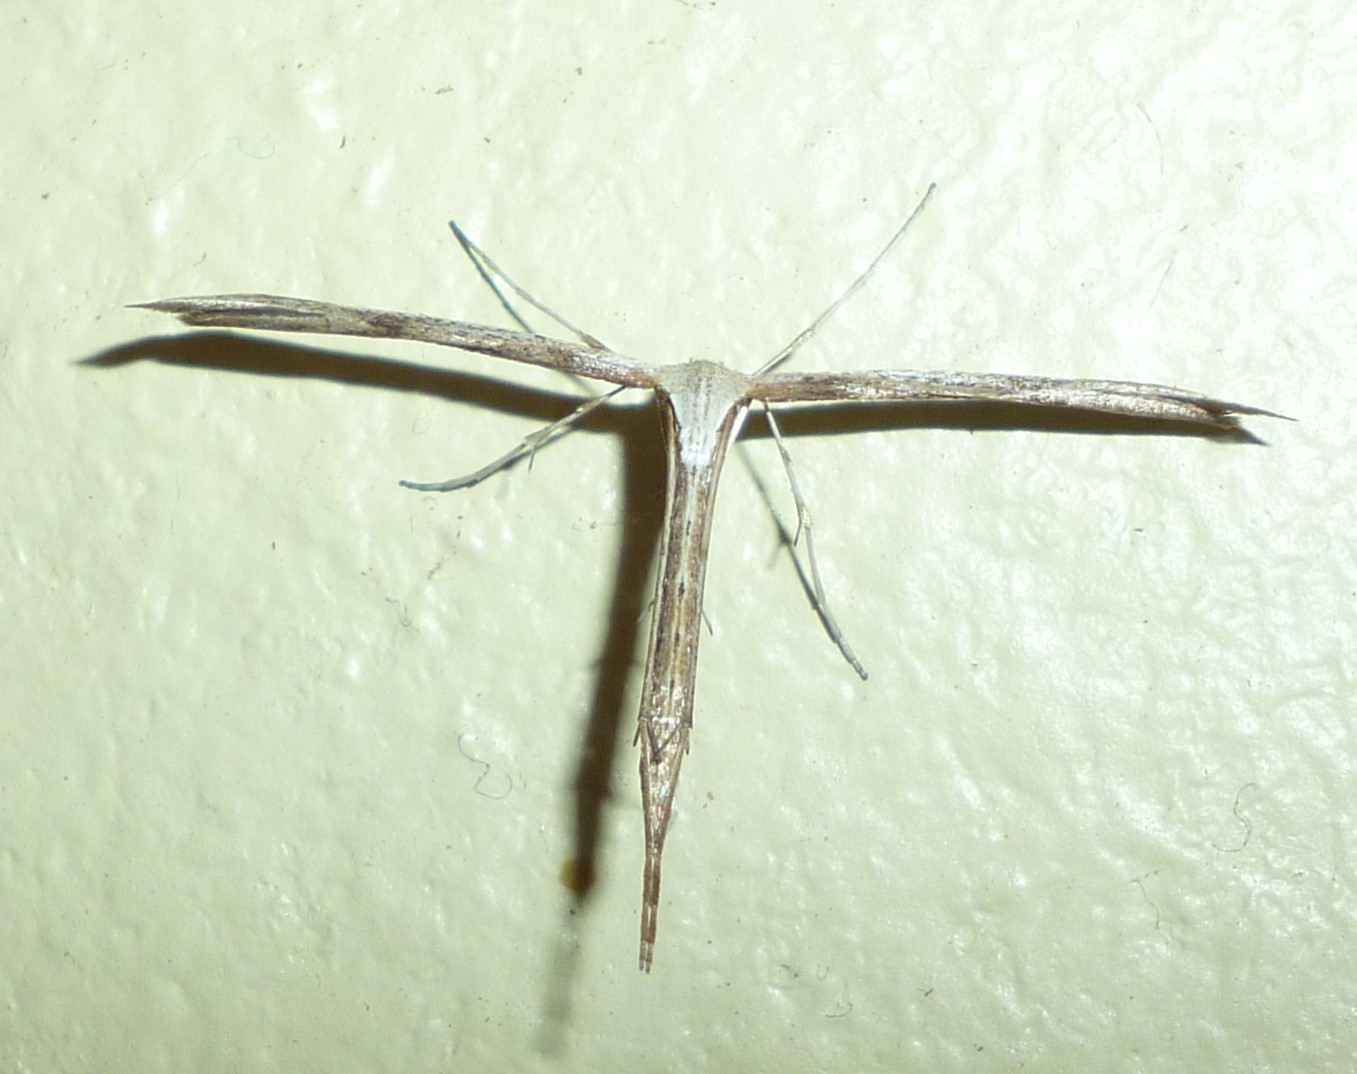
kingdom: Animalia
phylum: Arthropoda
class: Insecta
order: Lepidoptera
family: Pterophoridae
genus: Emmelina
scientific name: Emmelina monodactyla
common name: Common plume
